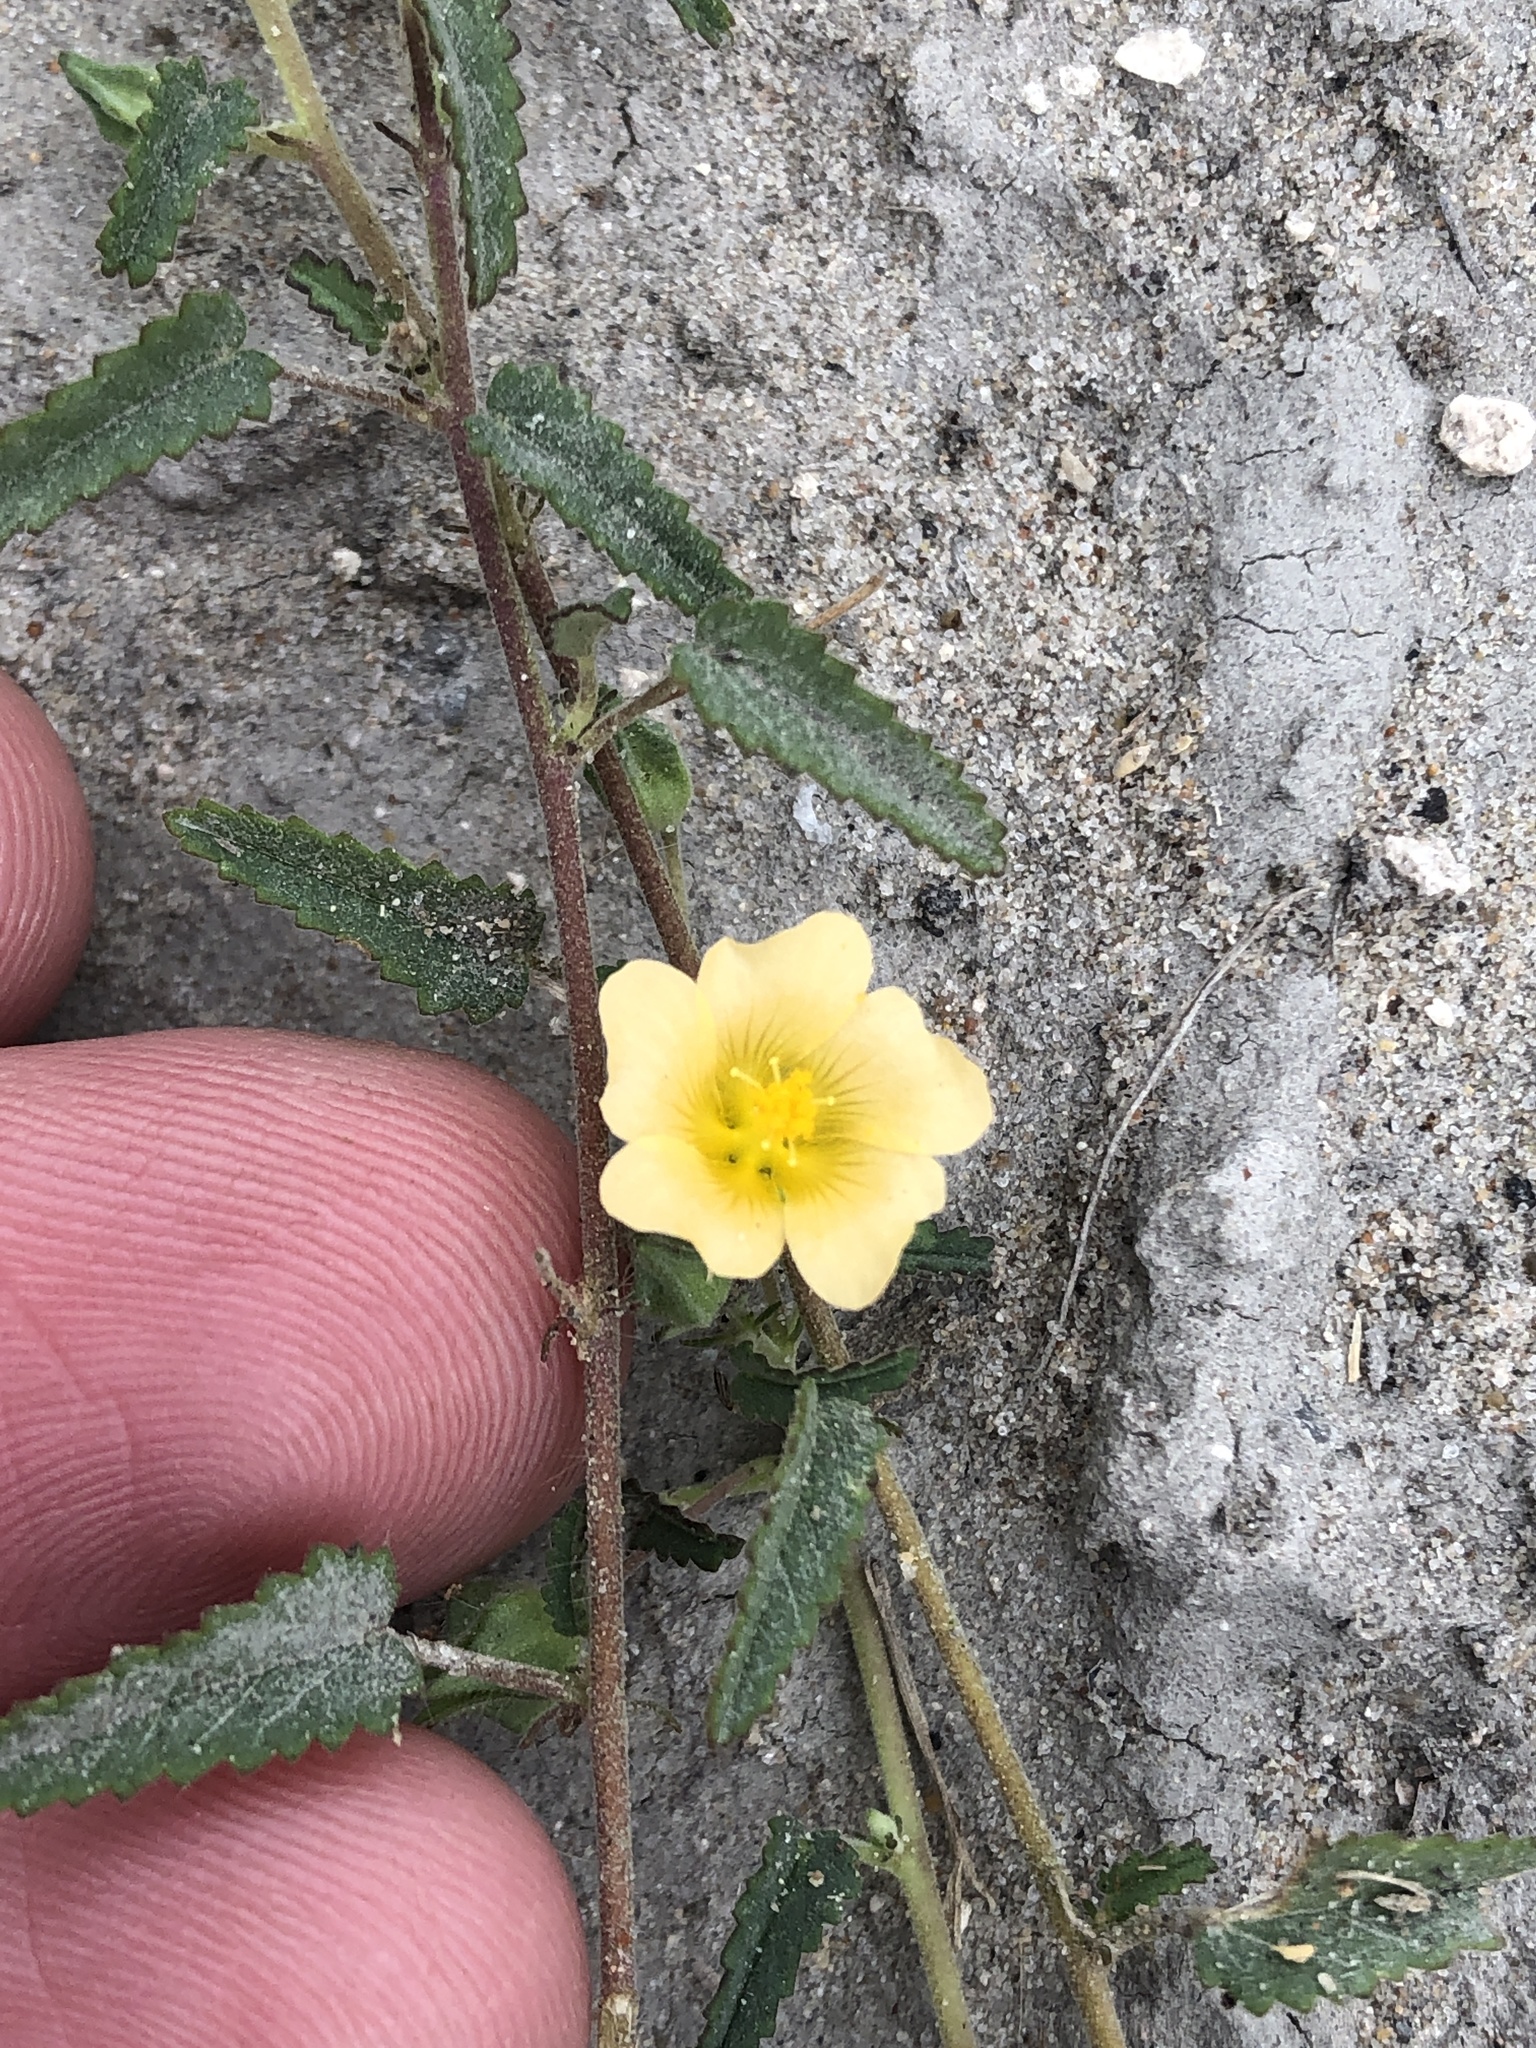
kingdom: Plantae
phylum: Tracheophyta
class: Magnoliopsida
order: Malvales
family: Malvaceae
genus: Sida
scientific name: Sida abutilifolia
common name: Spreading fanpetals
